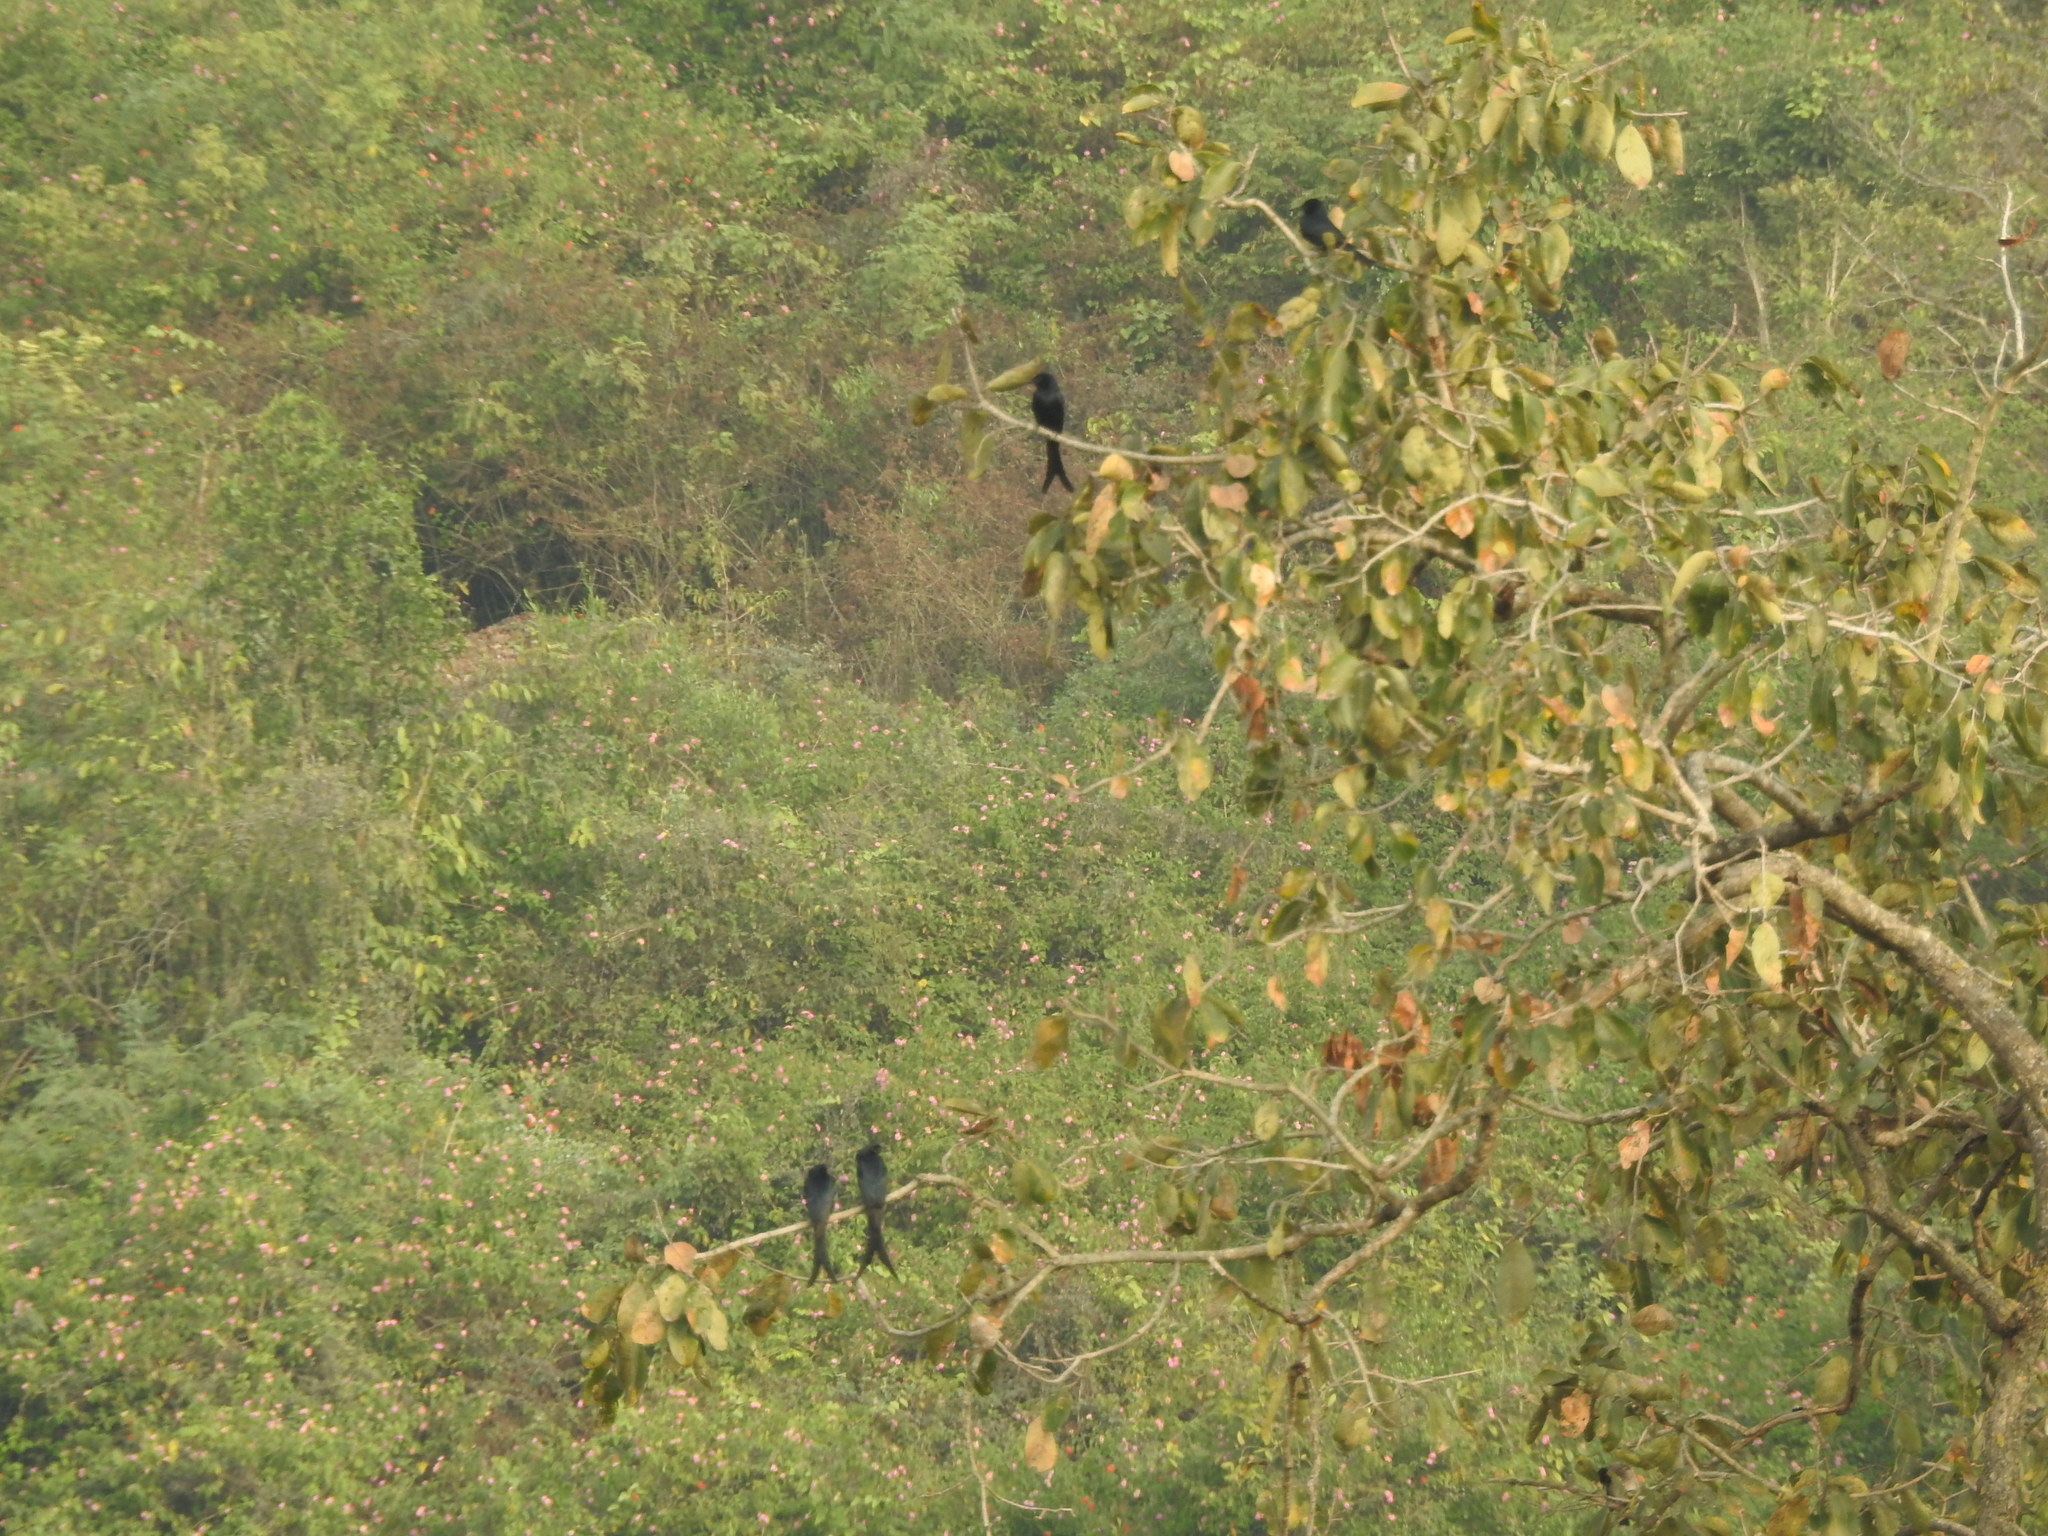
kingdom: Animalia
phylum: Chordata
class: Aves
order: Passeriformes
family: Dicruridae
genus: Dicrurus
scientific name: Dicrurus macrocercus
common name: Black drongo
